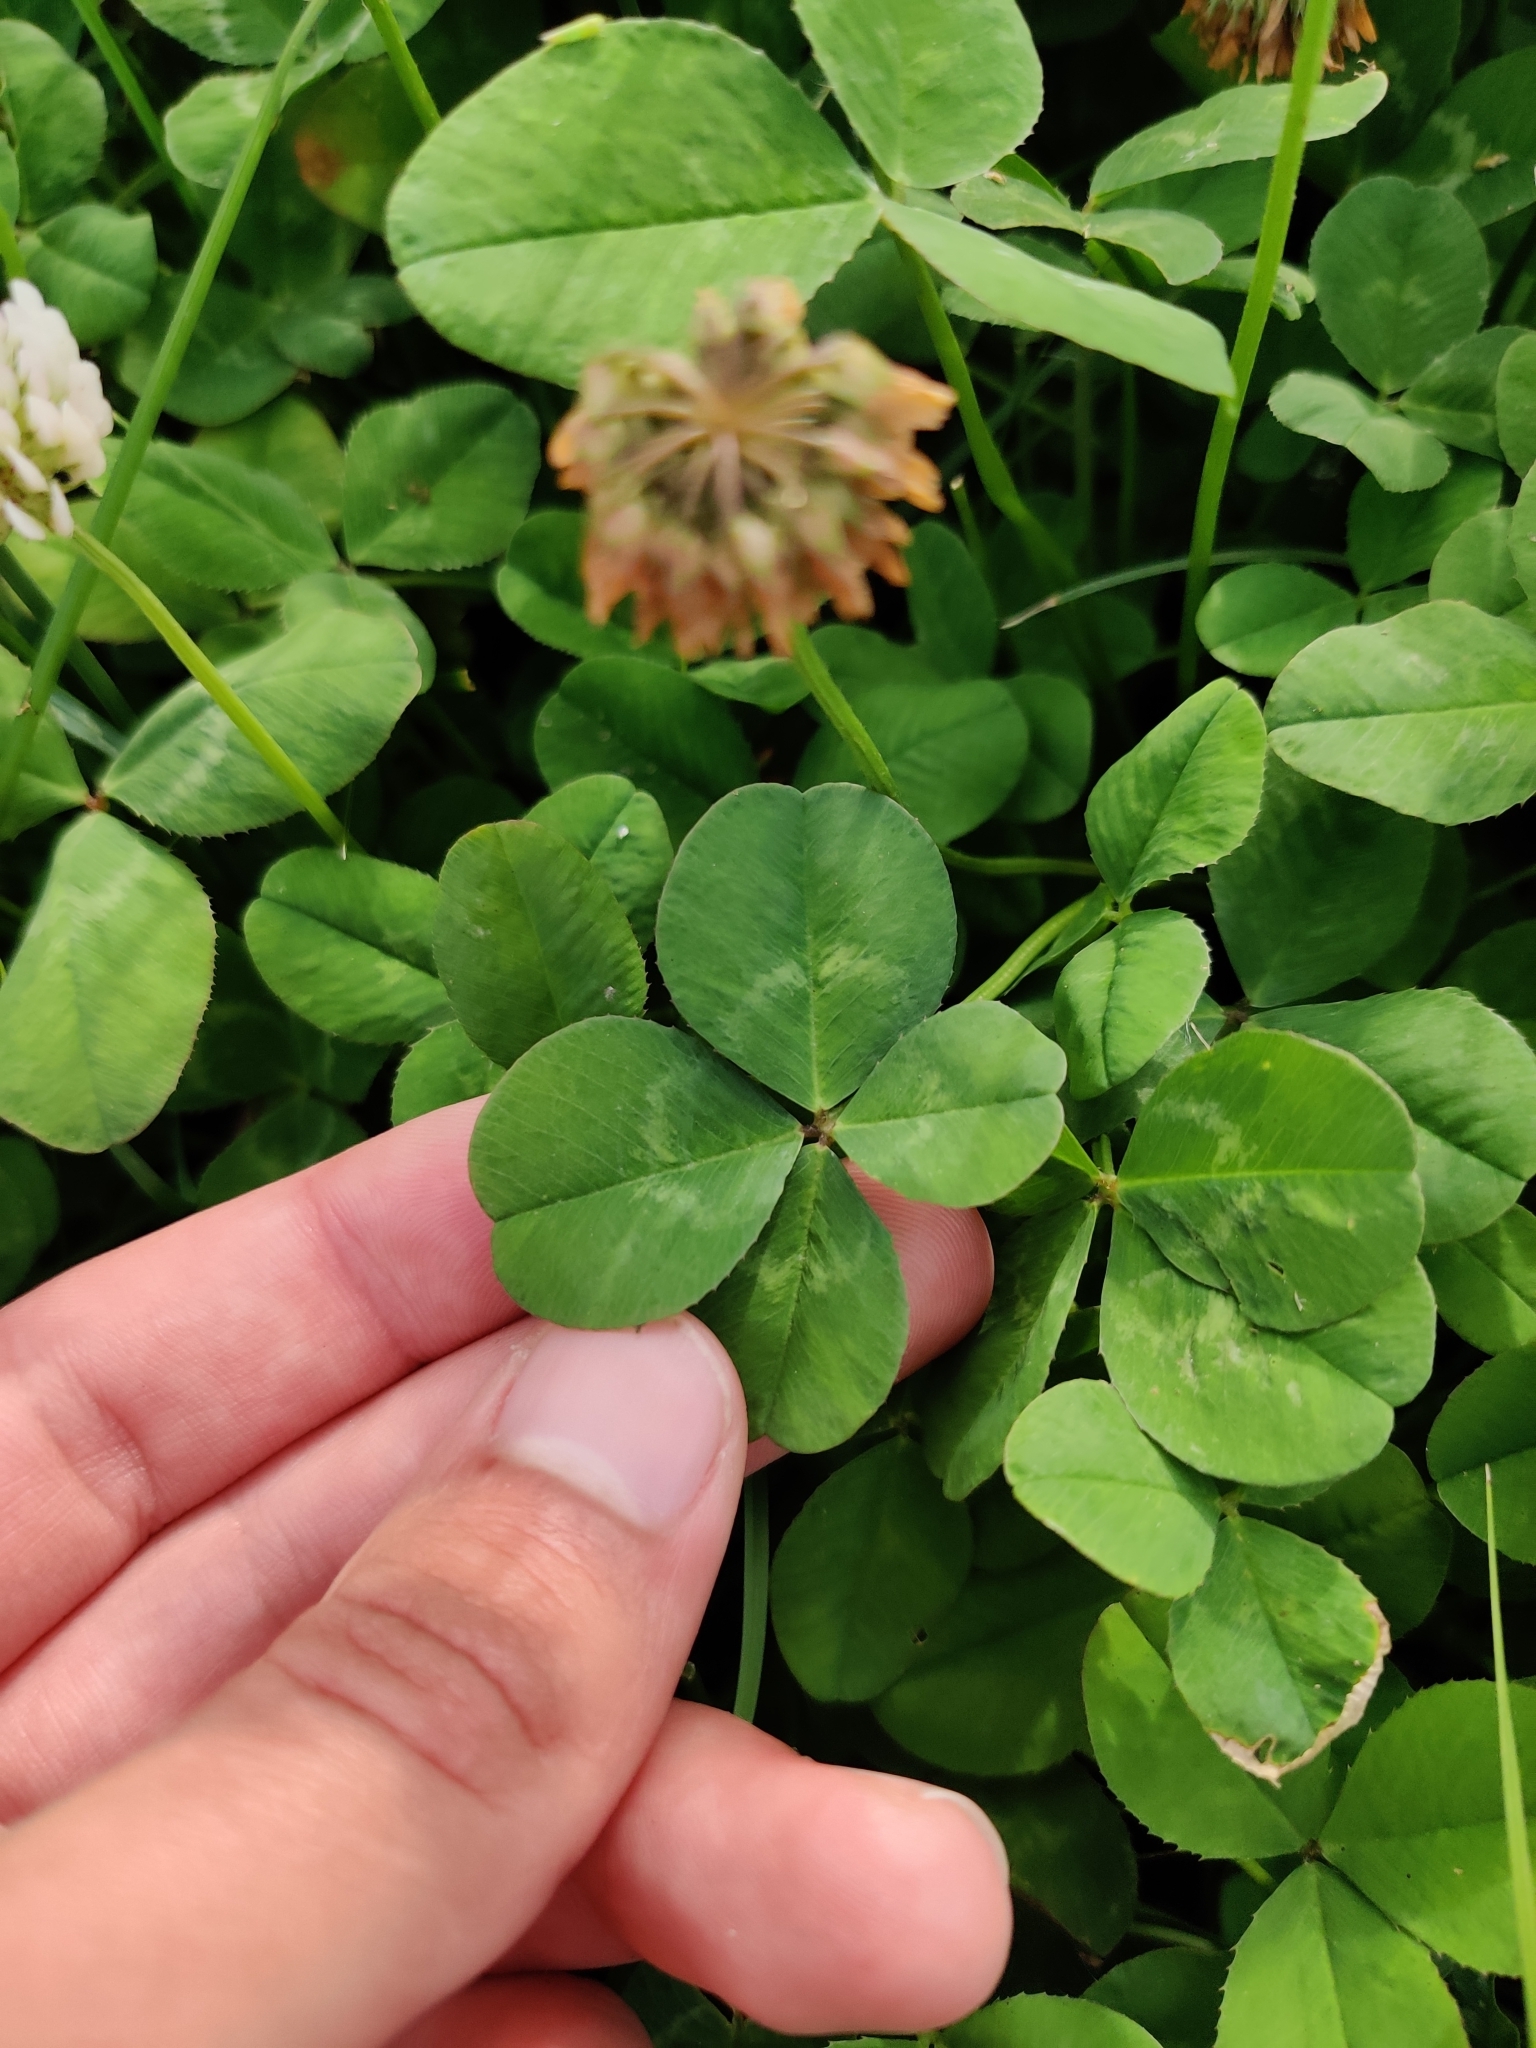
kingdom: Plantae
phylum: Tracheophyta
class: Magnoliopsida
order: Fabales
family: Fabaceae
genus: Trifolium
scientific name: Trifolium repens
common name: White clover
